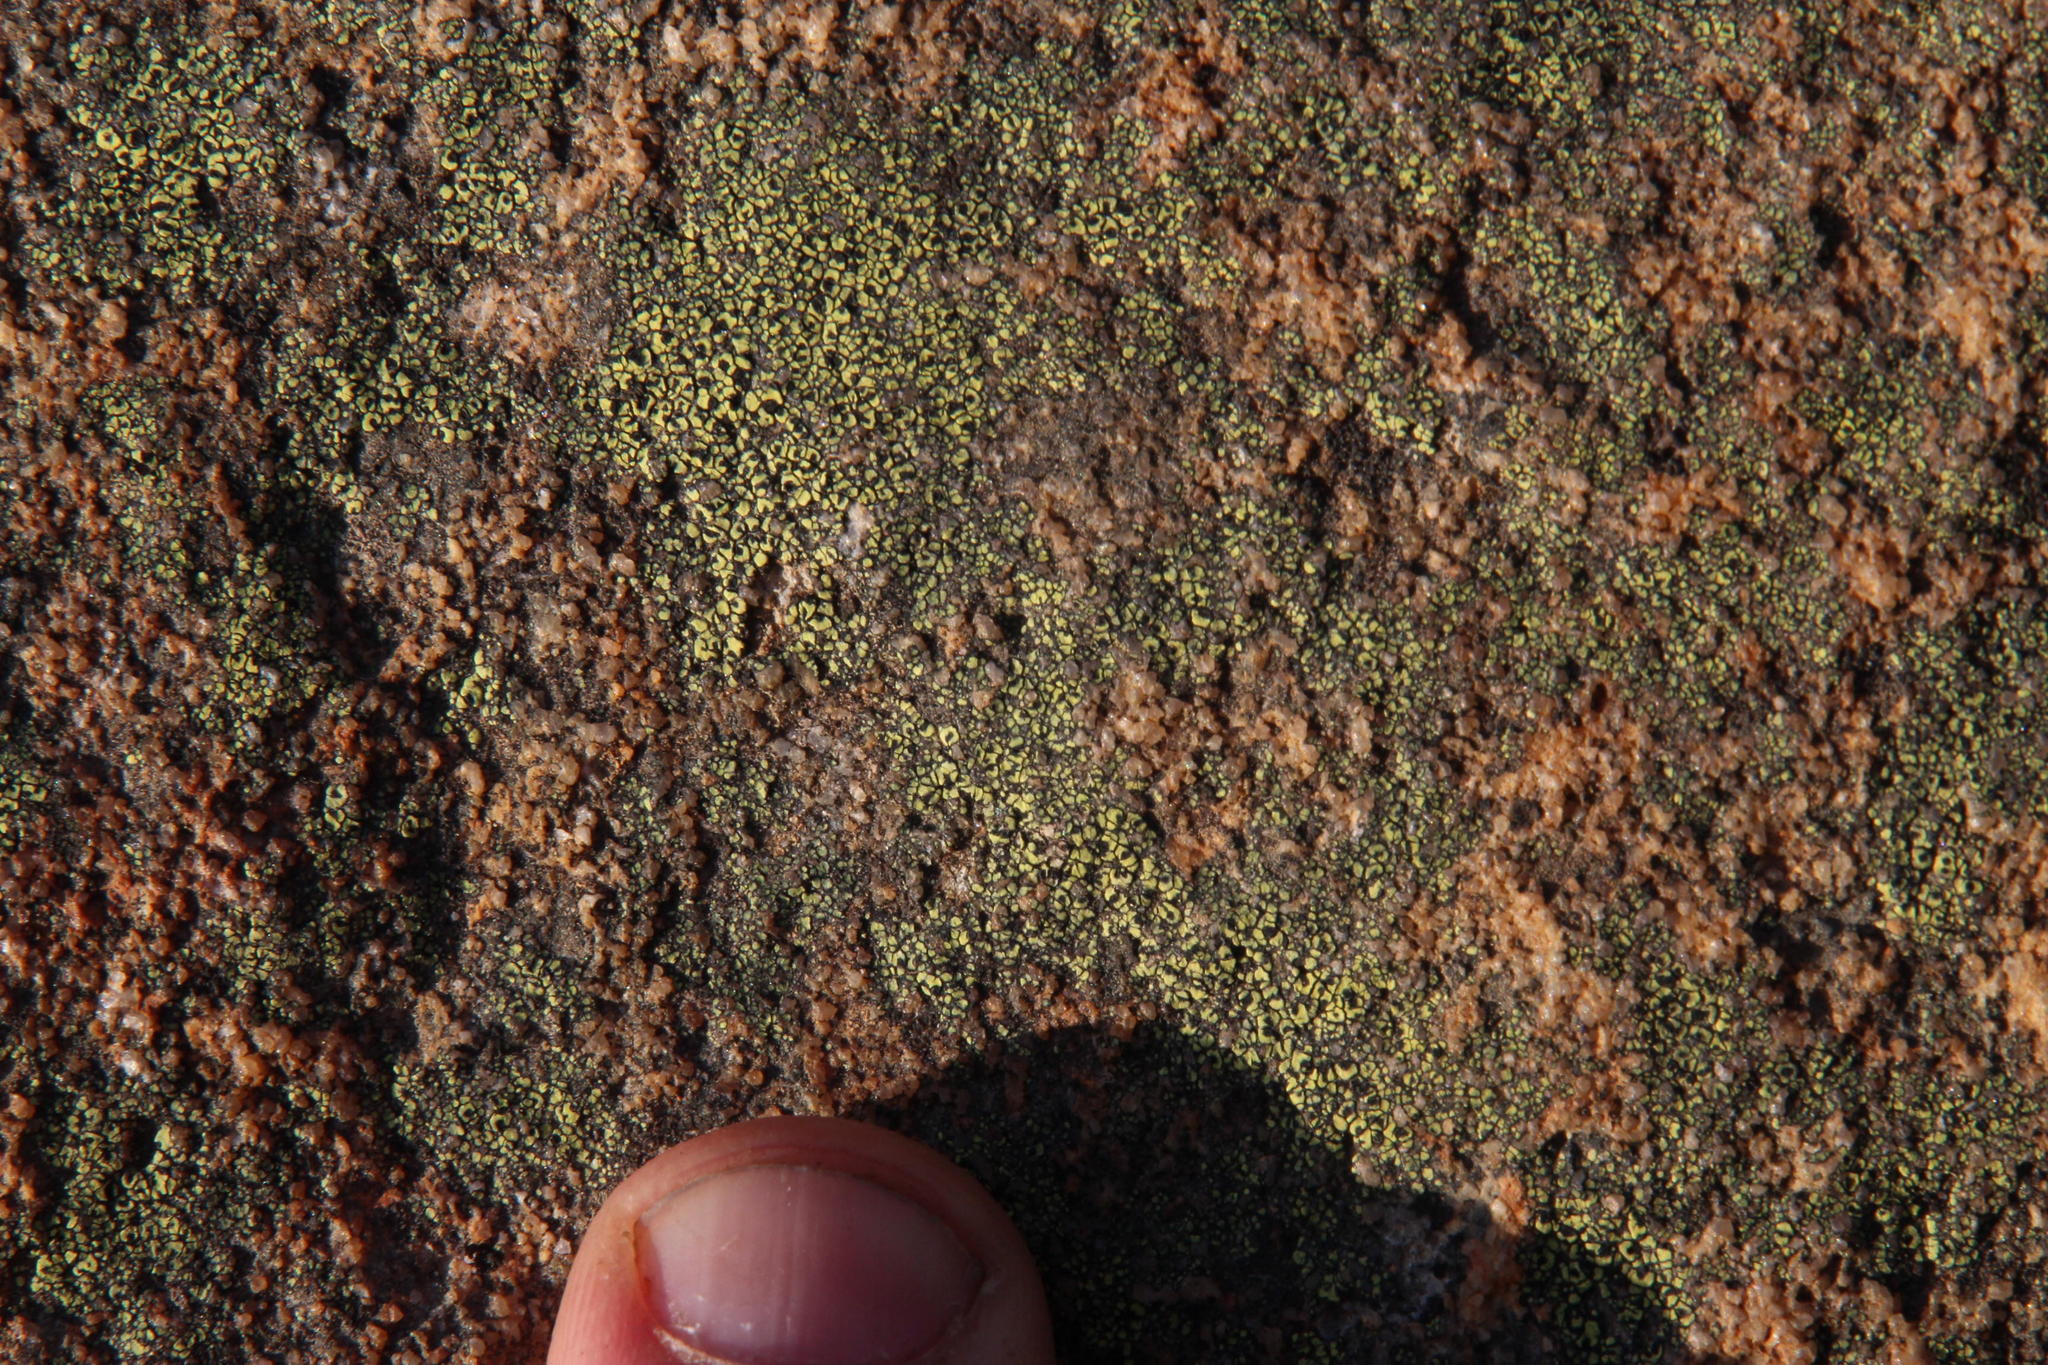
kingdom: Fungi
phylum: Ascomycota
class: Lecanoromycetes
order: Rhizocarpales
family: Rhizocarpaceae
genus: Rhizocarpon
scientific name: Rhizocarpon lecanorinum
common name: Crescent map lichen
